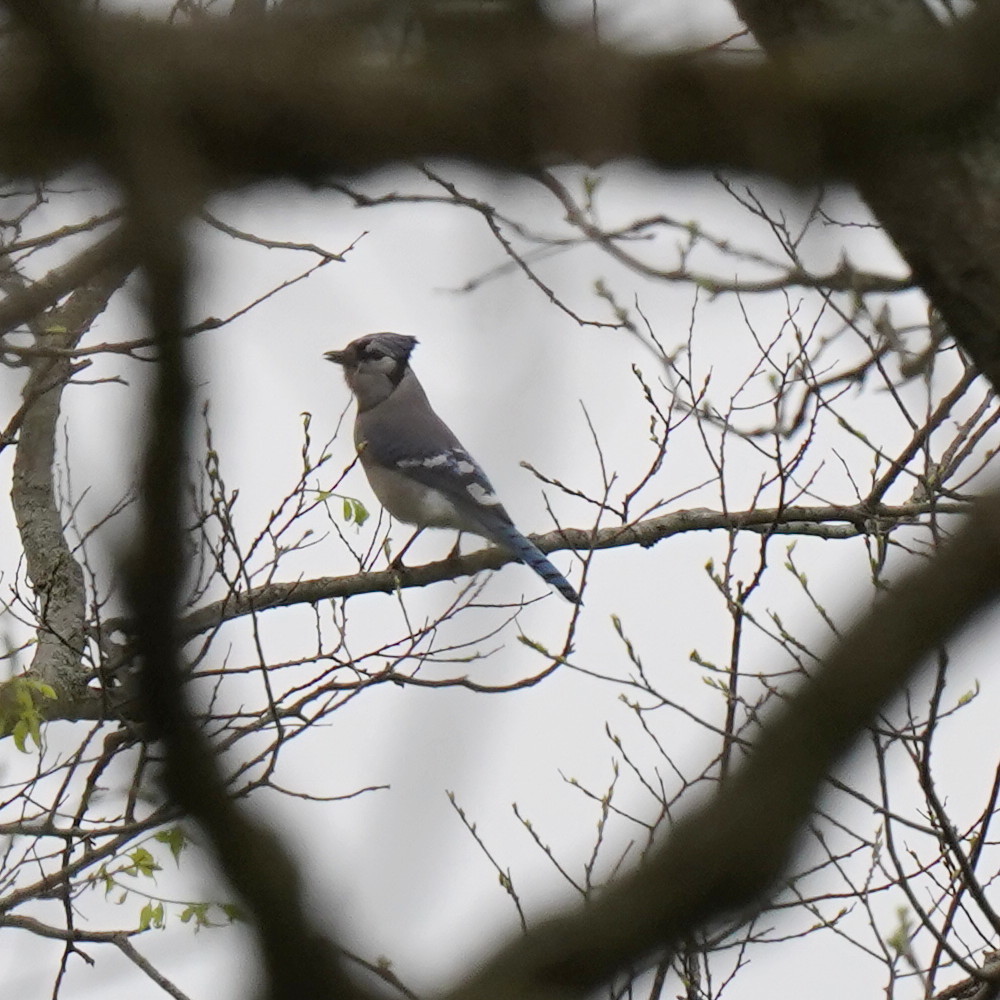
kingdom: Animalia
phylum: Chordata
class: Aves
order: Passeriformes
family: Corvidae
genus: Cyanocitta
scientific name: Cyanocitta cristata
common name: Blue jay
